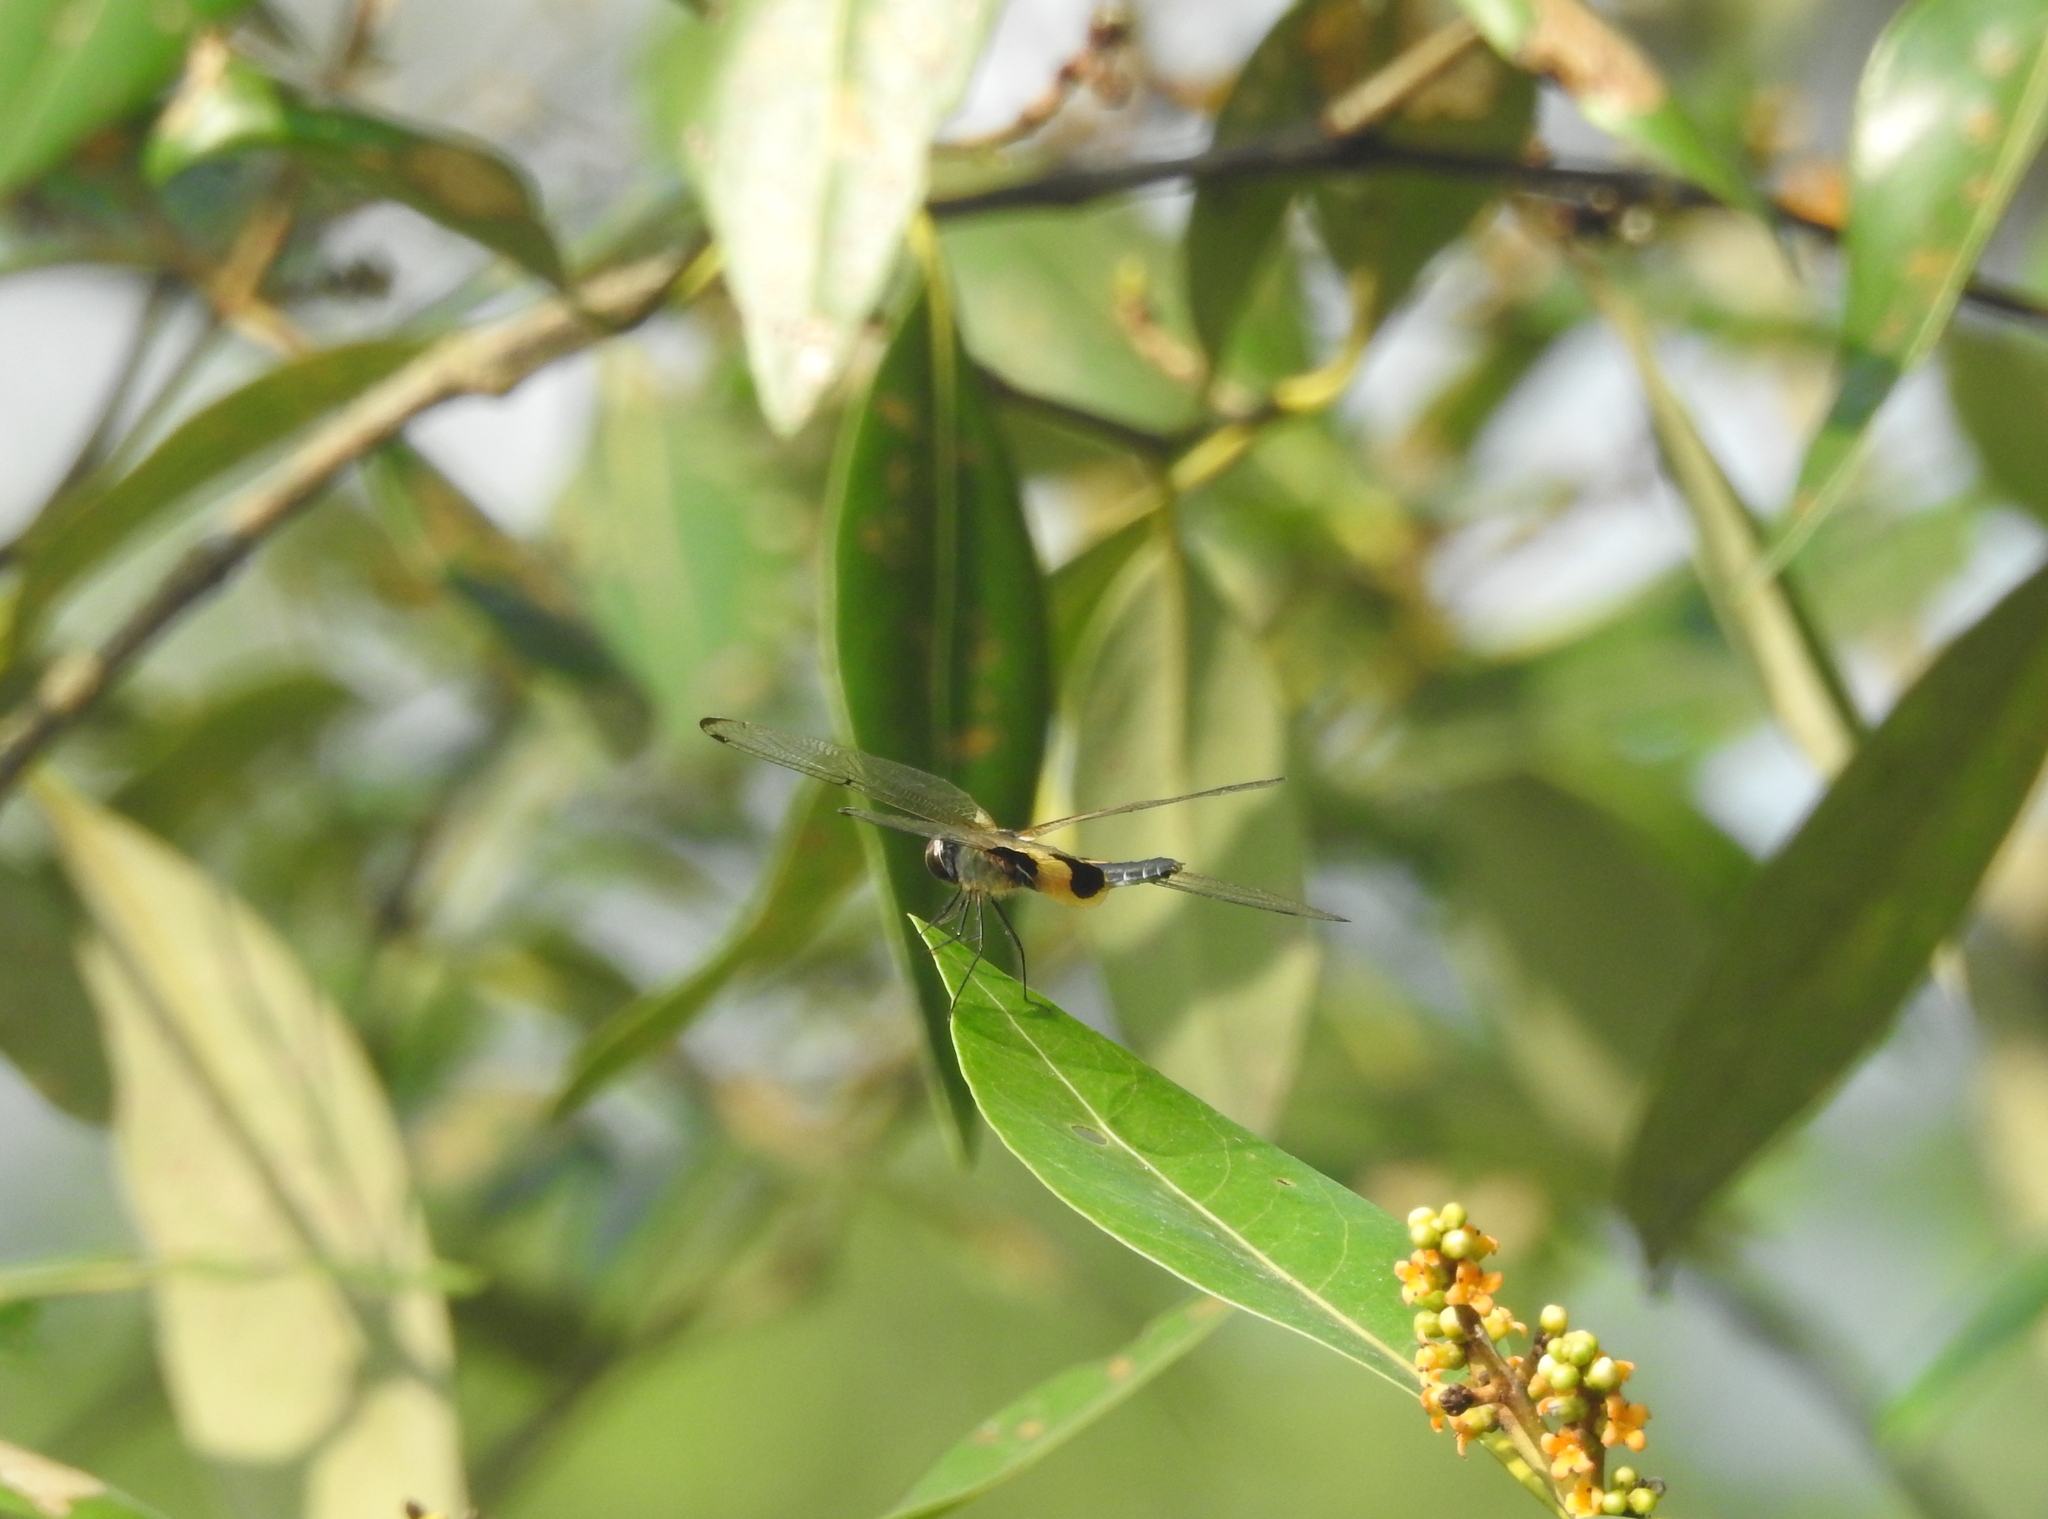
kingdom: Animalia
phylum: Arthropoda
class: Insecta
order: Odonata
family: Libellulidae
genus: Rhyothemis
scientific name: Rhyothemis phyllis
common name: Yellow-barred flutterer
